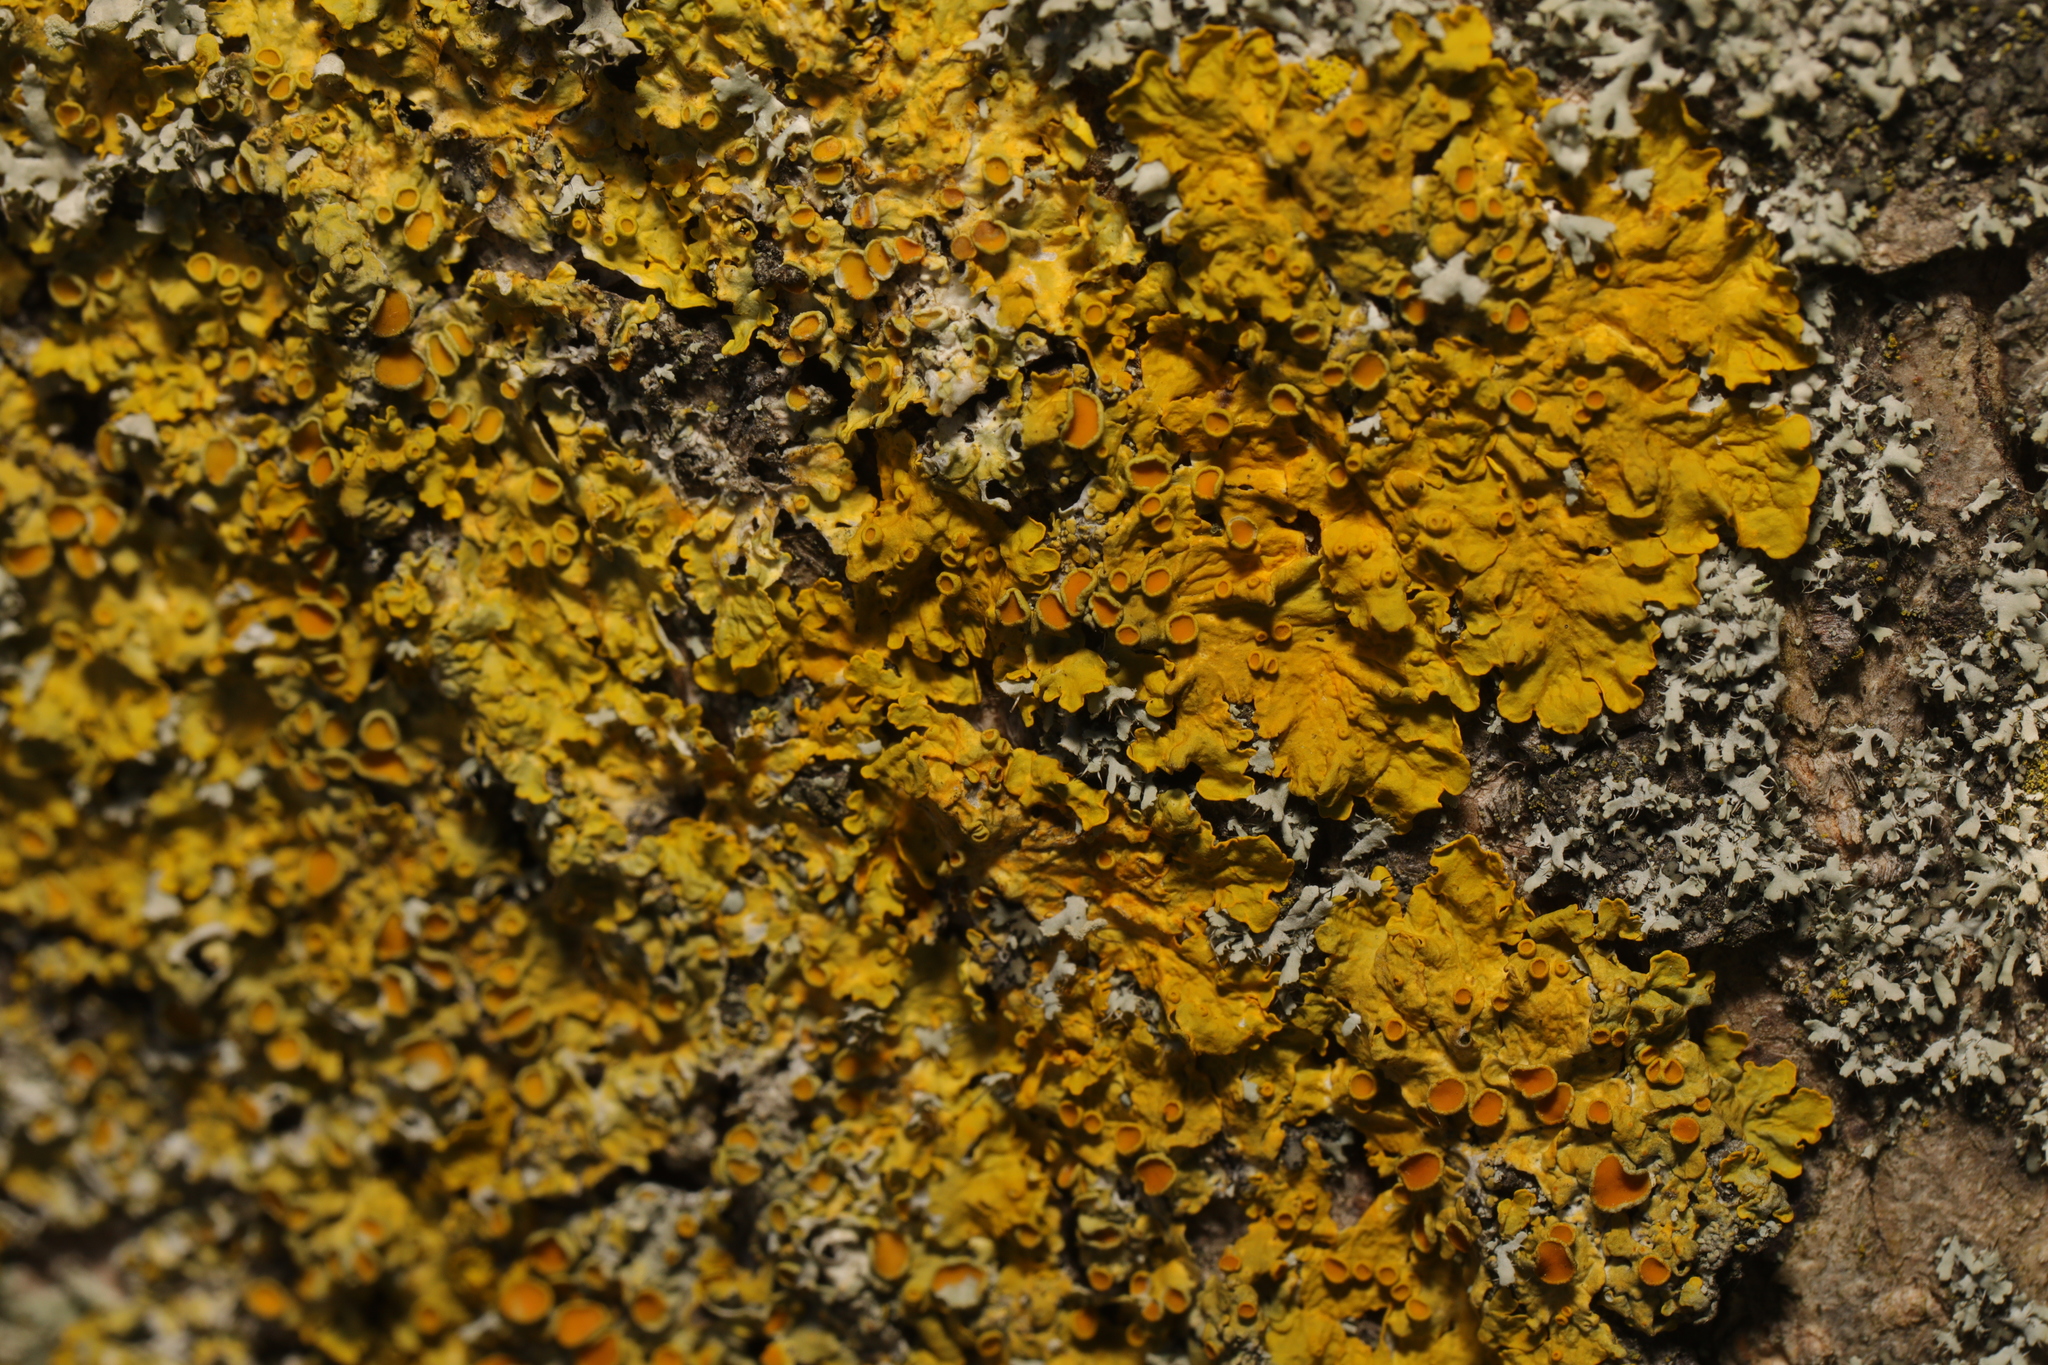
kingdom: Fungi
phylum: Ascomycota
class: Lecanoromycetes
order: Teloschistales
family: Teloschistaceae
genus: Xanthoria
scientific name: Xanthoria parietina
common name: Common orange lichen
